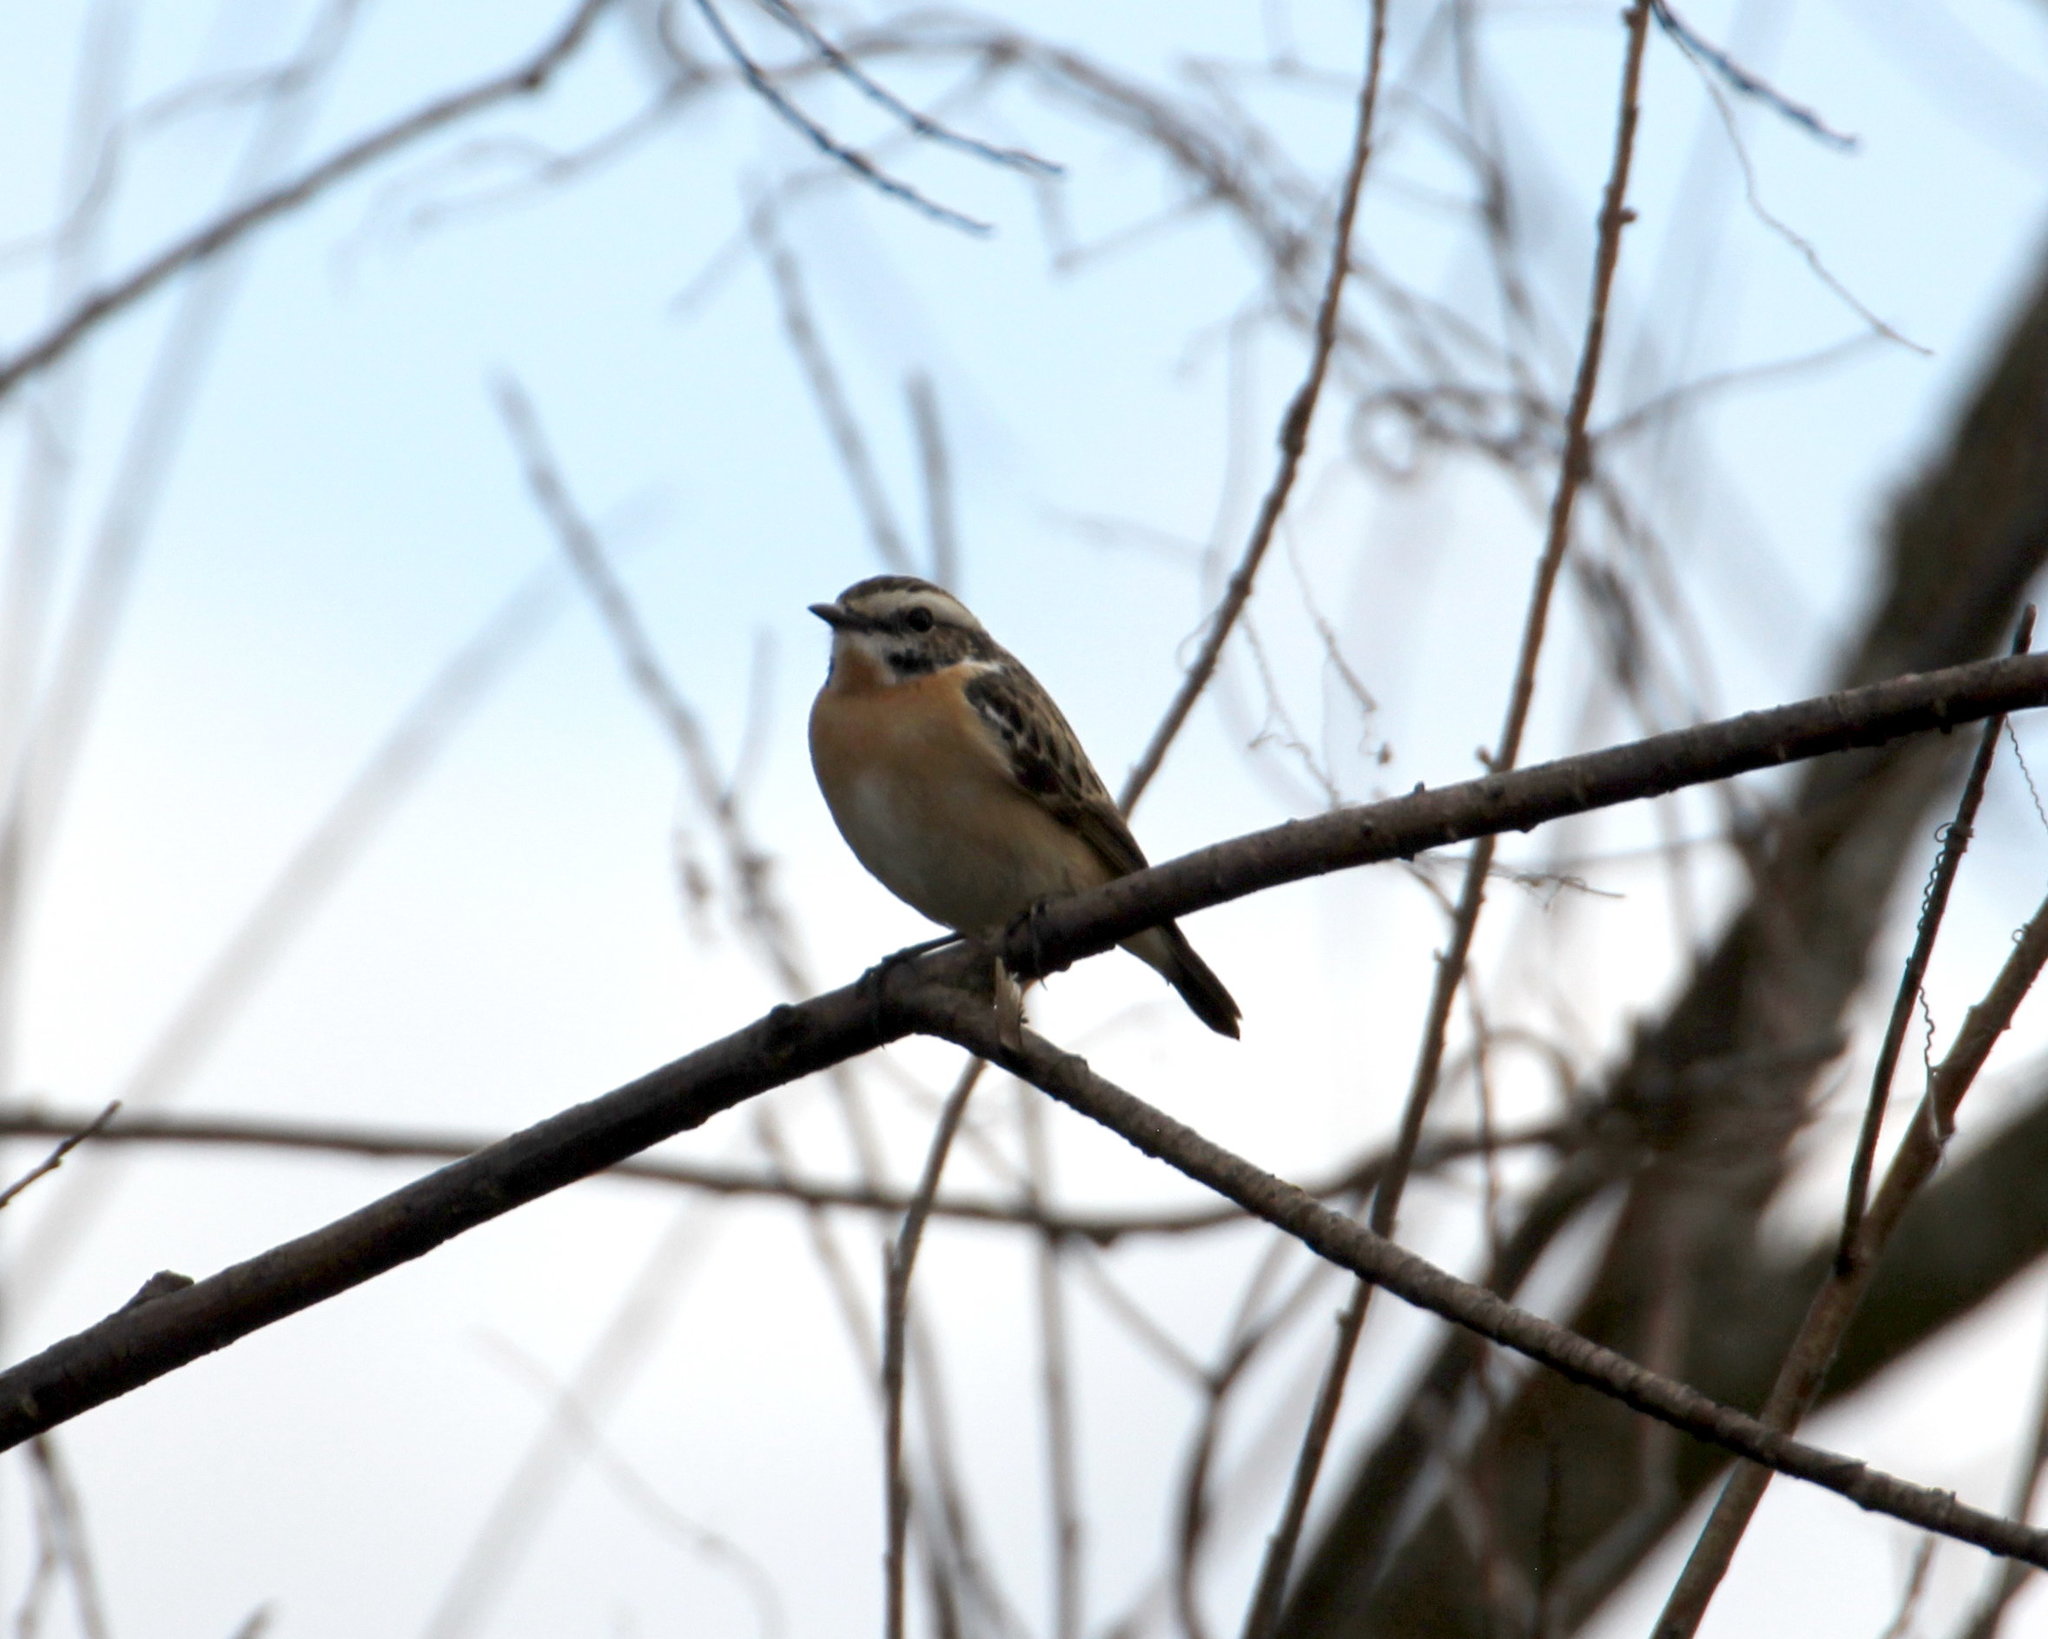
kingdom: Animalia
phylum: Chordata
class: Aves
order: Passeriformes
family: Muscicapidae
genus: Saxicola
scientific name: Saxicola rubetra
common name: Whinchat
